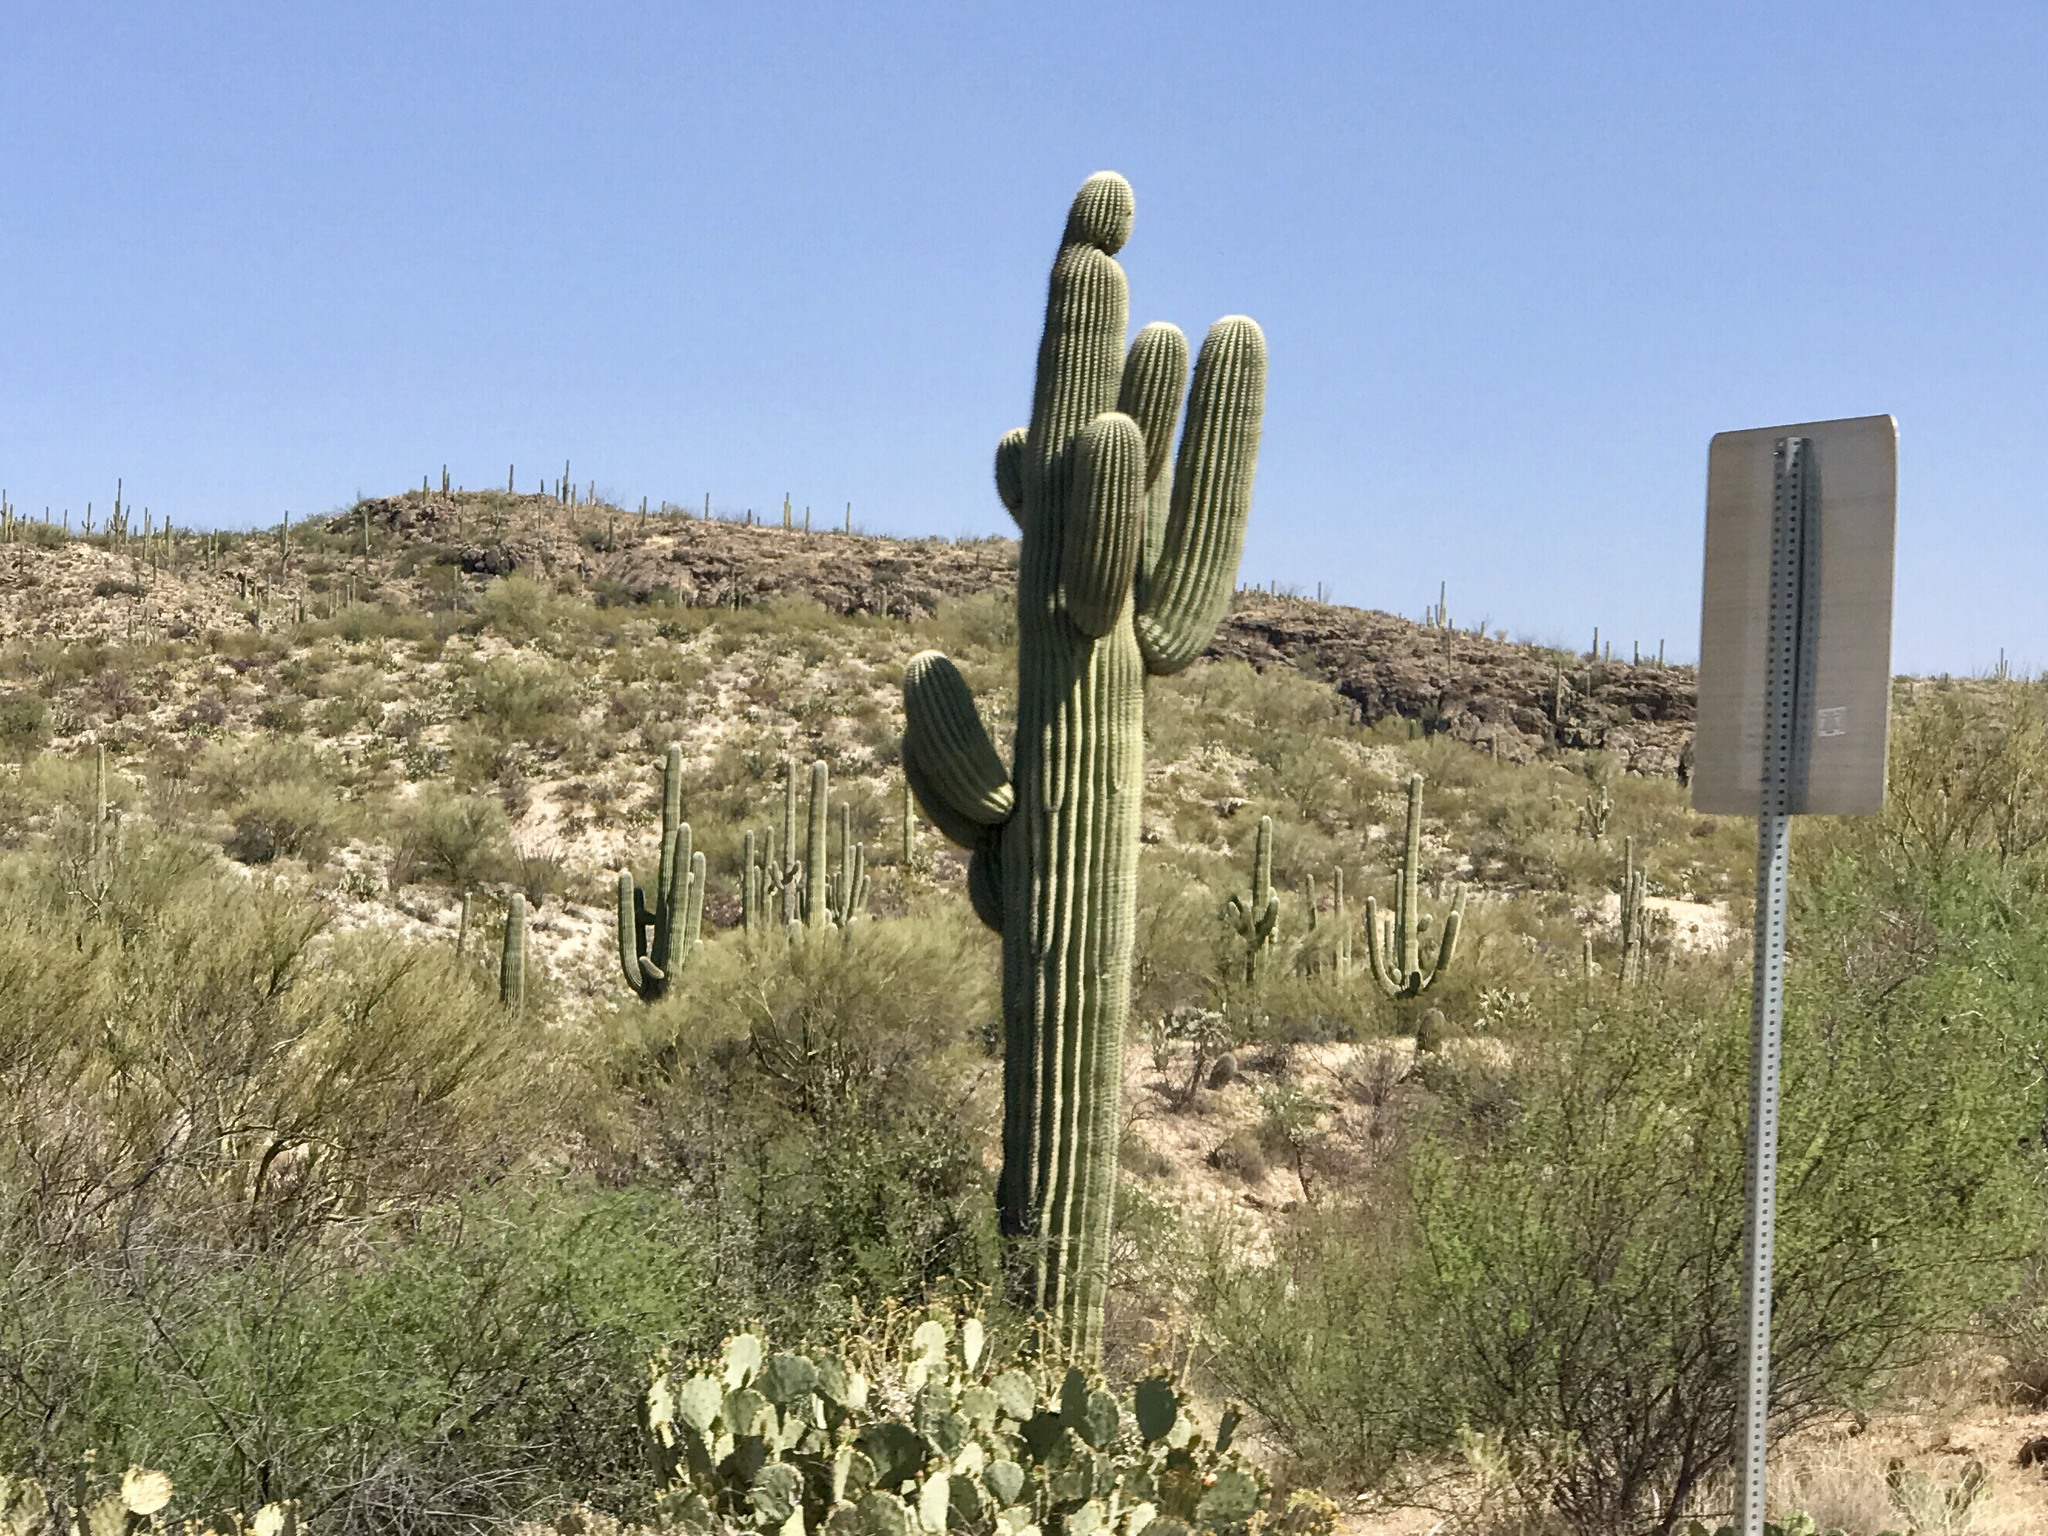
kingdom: Plantae
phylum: Tracheophyta
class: Magnoliopsida
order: Caryophyllales
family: Cactaceae
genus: Carnegiea
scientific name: Carnegiea gigantea
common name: Saguaro
